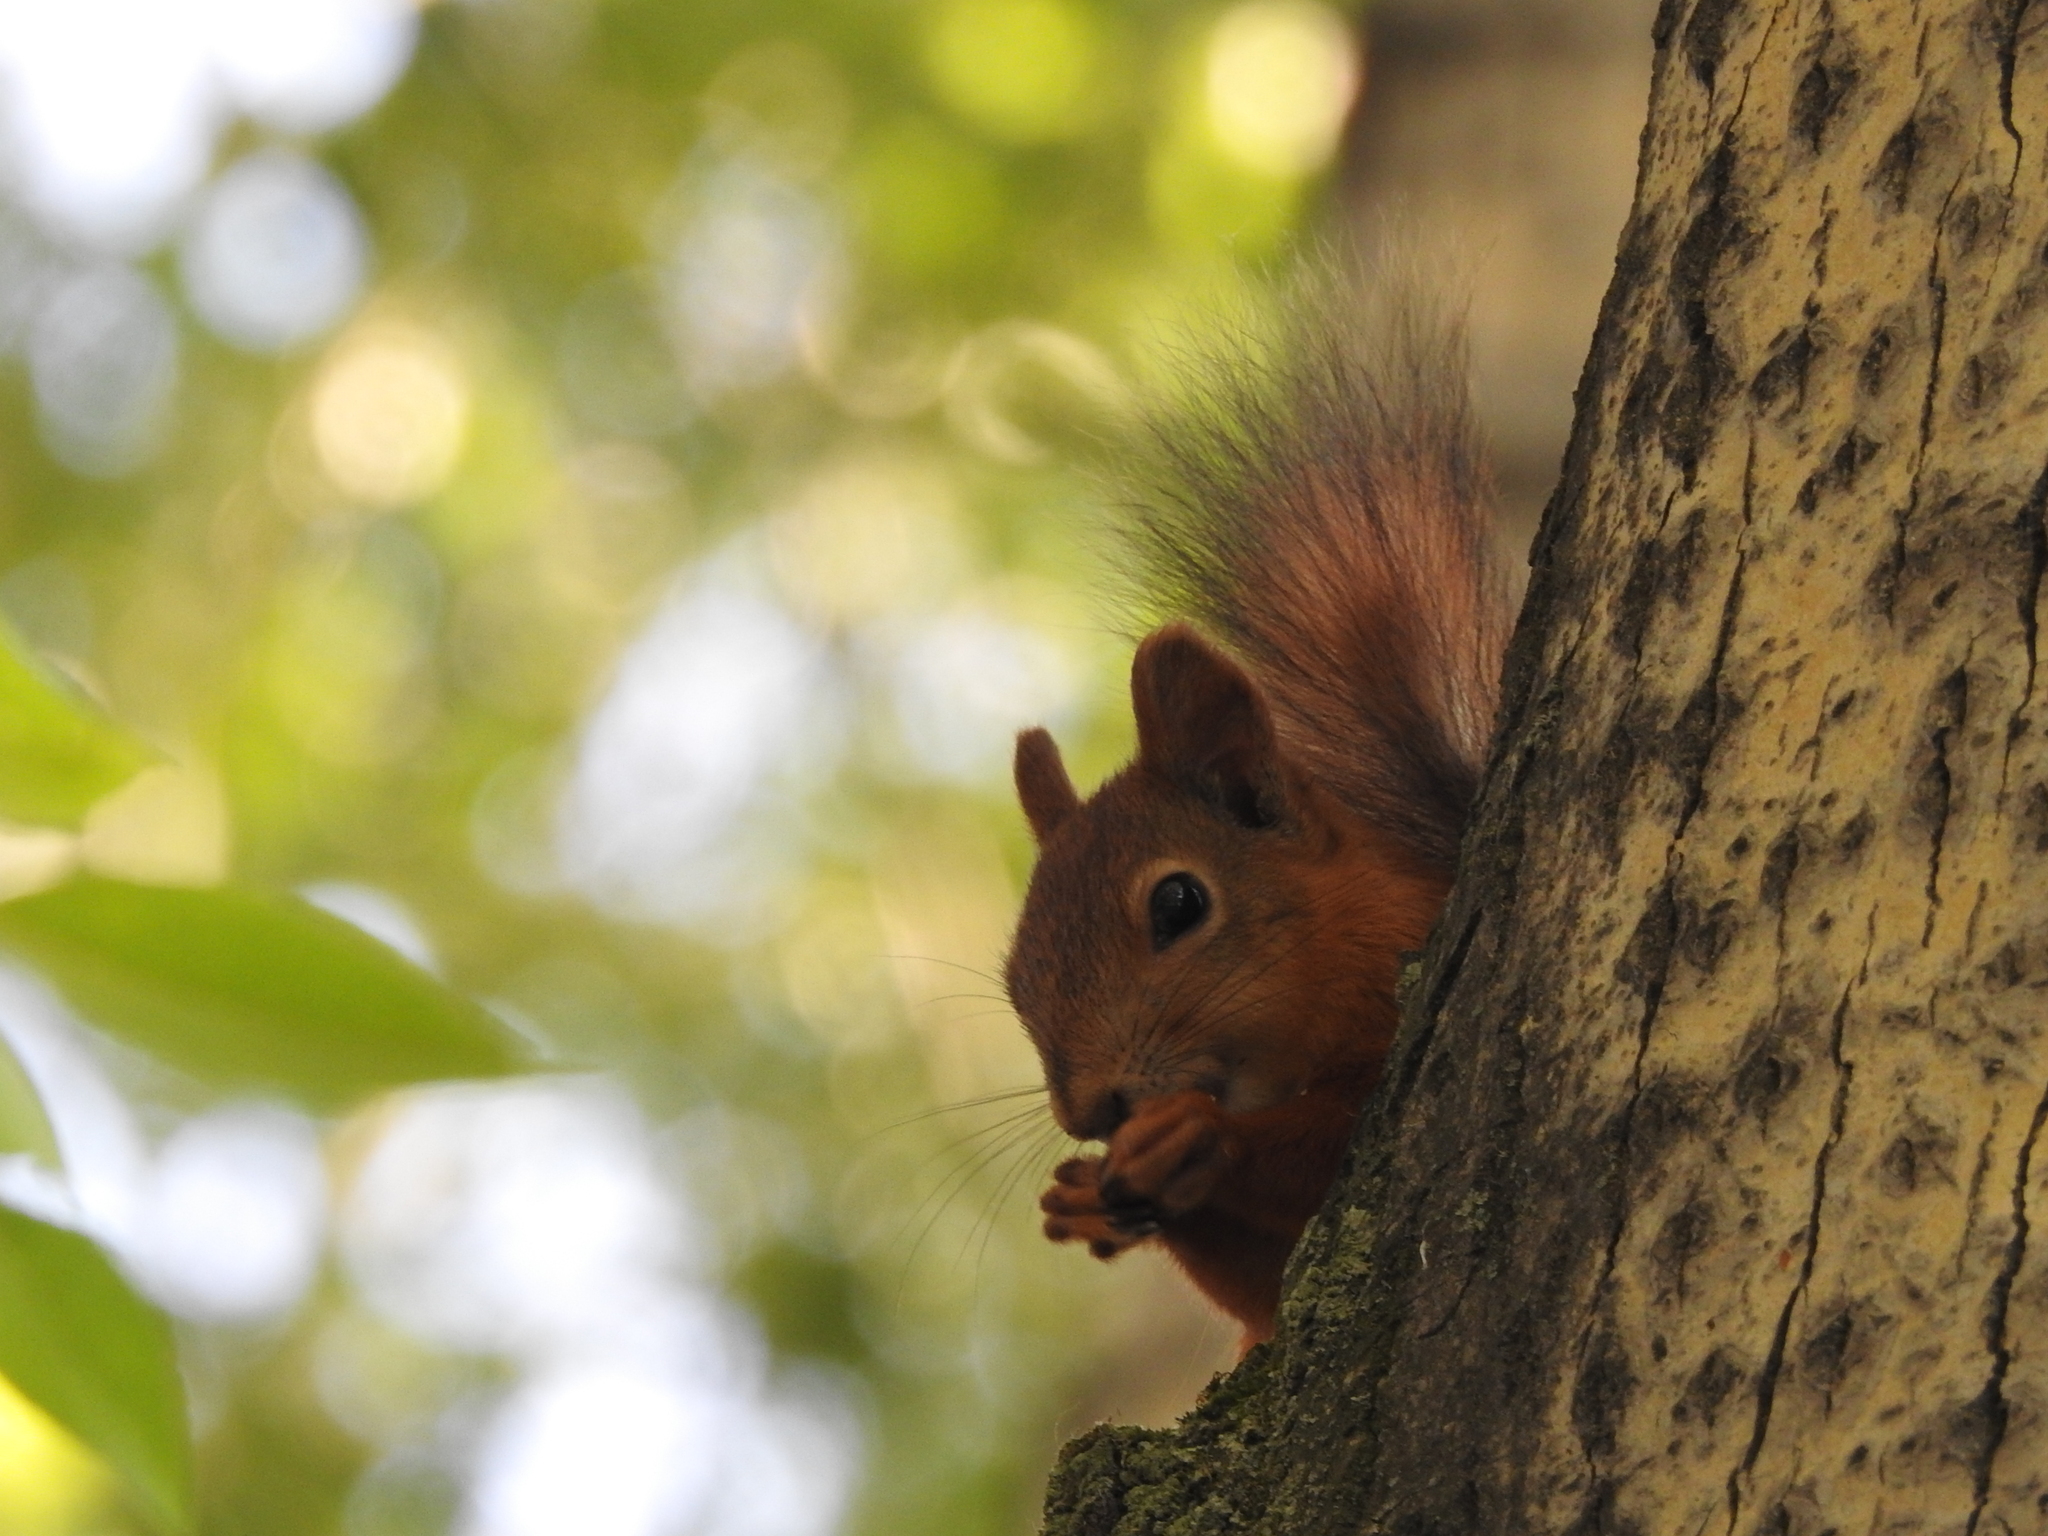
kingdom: Animalia
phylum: Chordata
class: Mammalia
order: Rodentia
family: Sciuridae
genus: Sciurus
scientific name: Sciurus vulgaris
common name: Eurasian red squirrel
